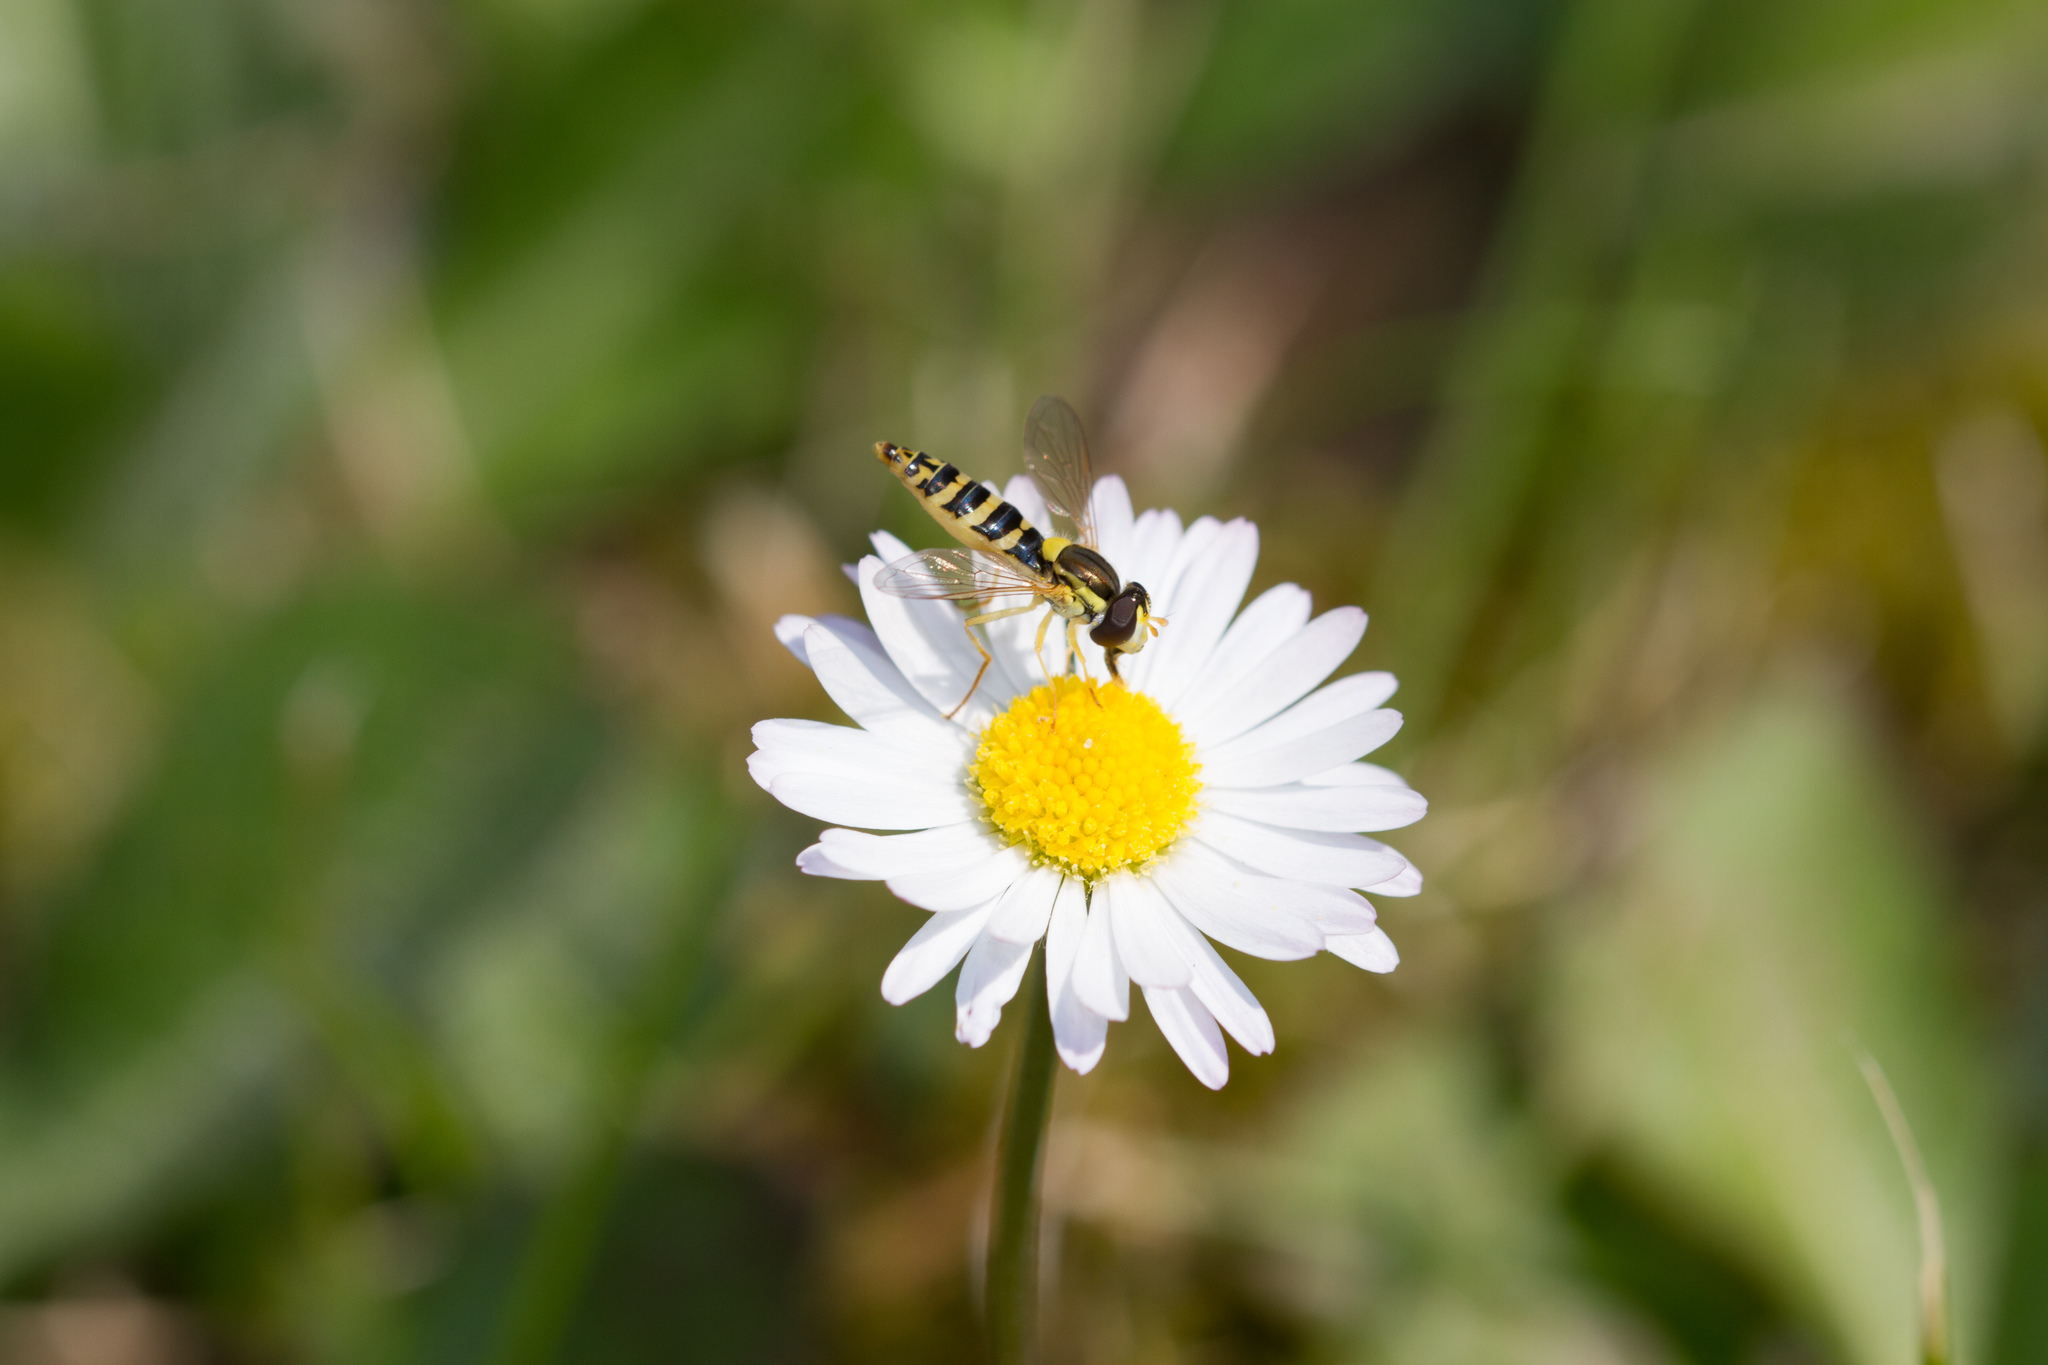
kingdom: Animalia
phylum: Arthropoda
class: Insecta
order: Diptera
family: Syrphidae
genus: Sphaerophoria
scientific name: Sphaerophoria
